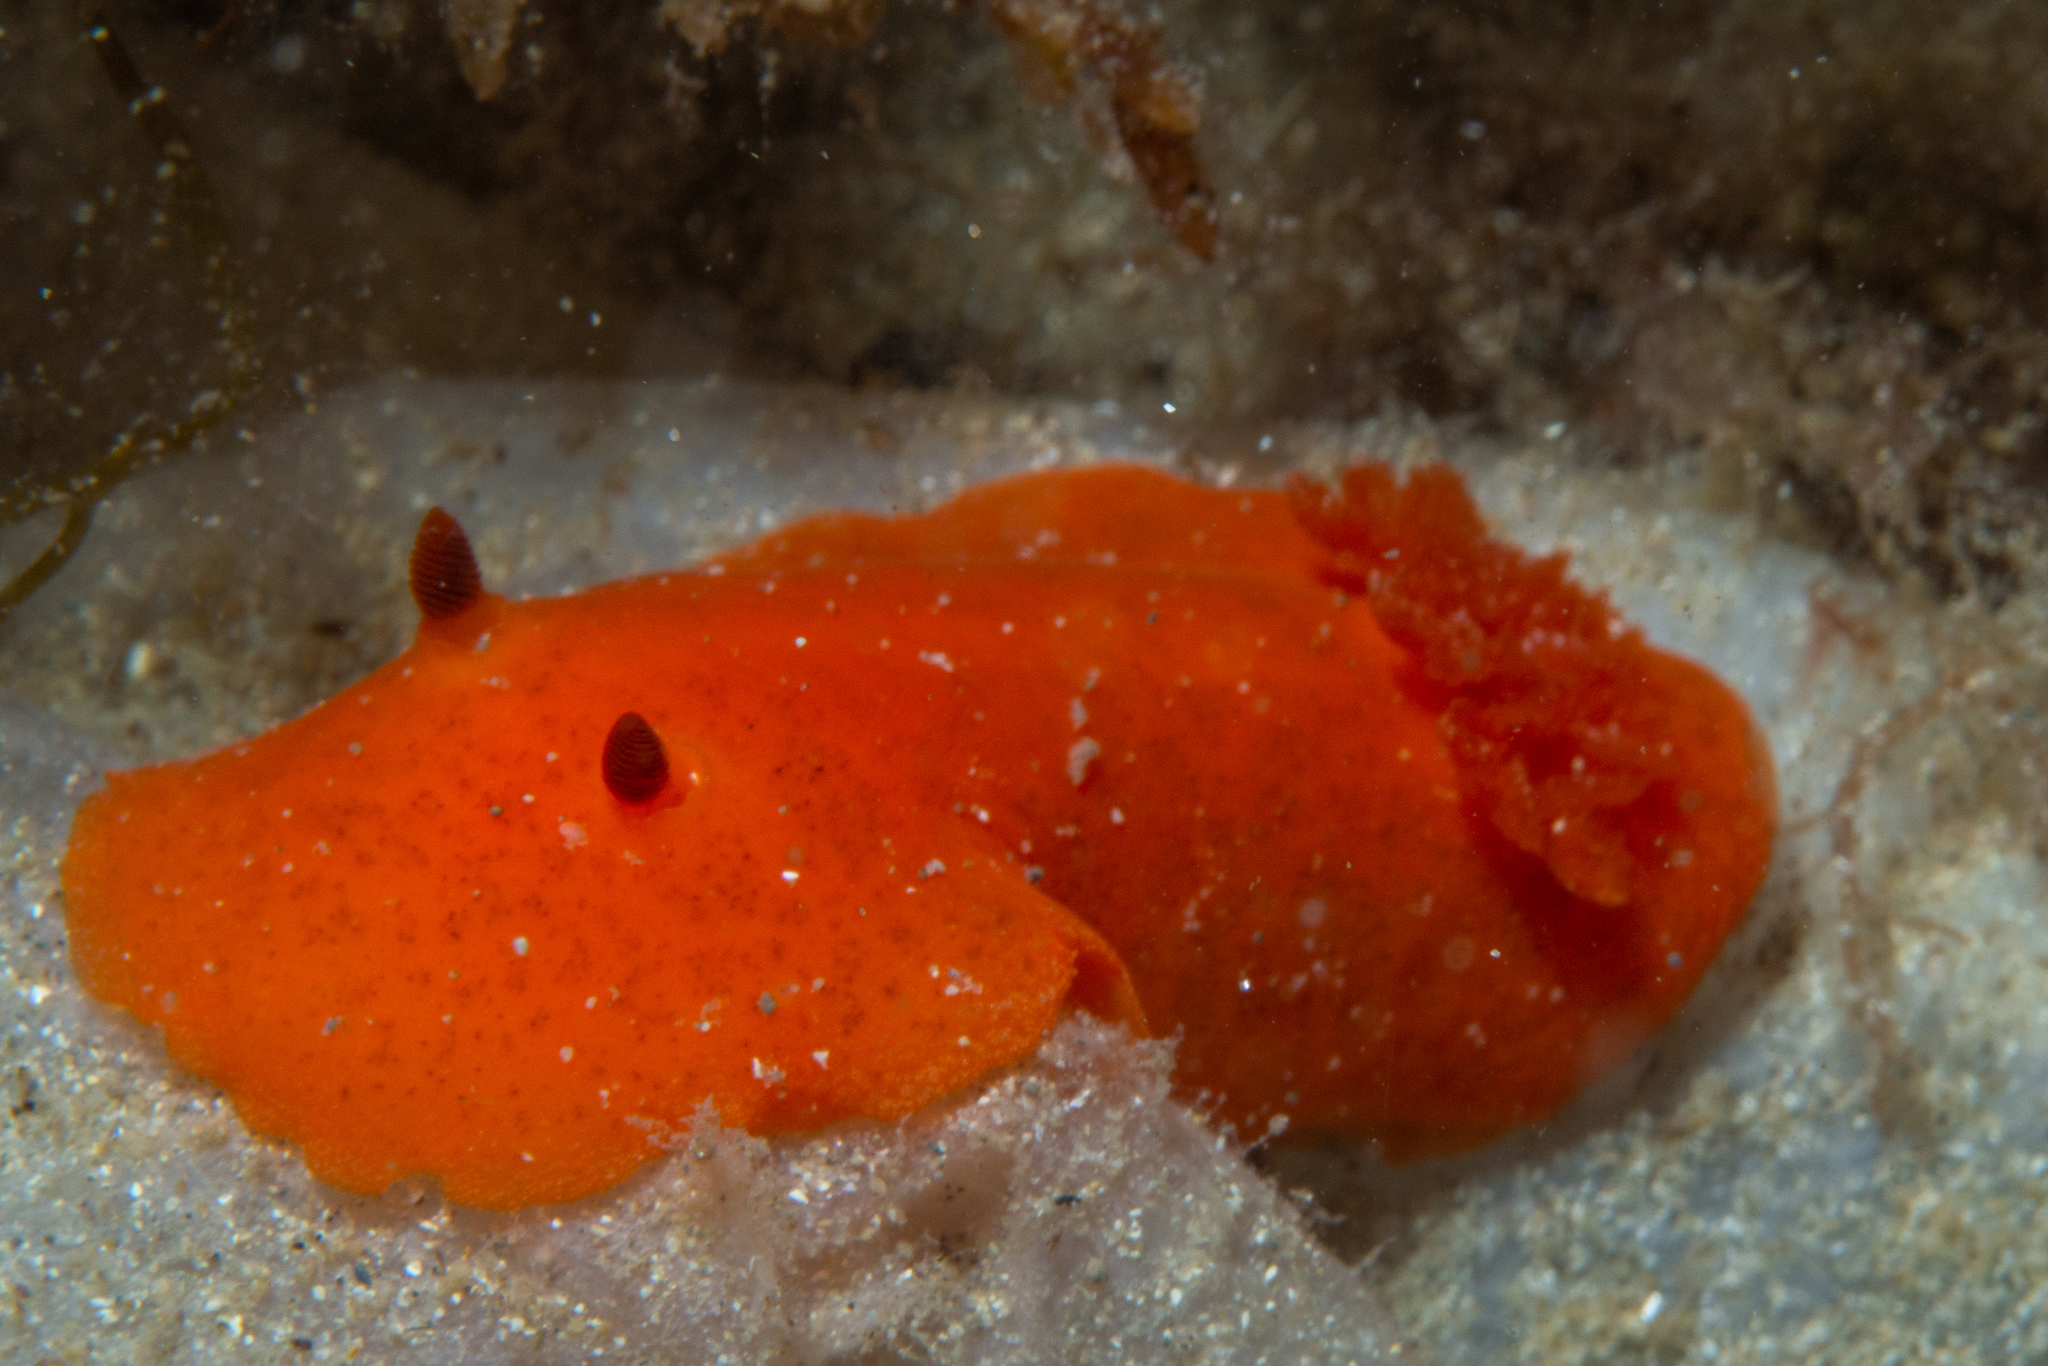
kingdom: Animalia
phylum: Mollusca
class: Gastropoda
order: Nudibranchia
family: Discodorididae
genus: Discodoris
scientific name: Discodoris paroa
